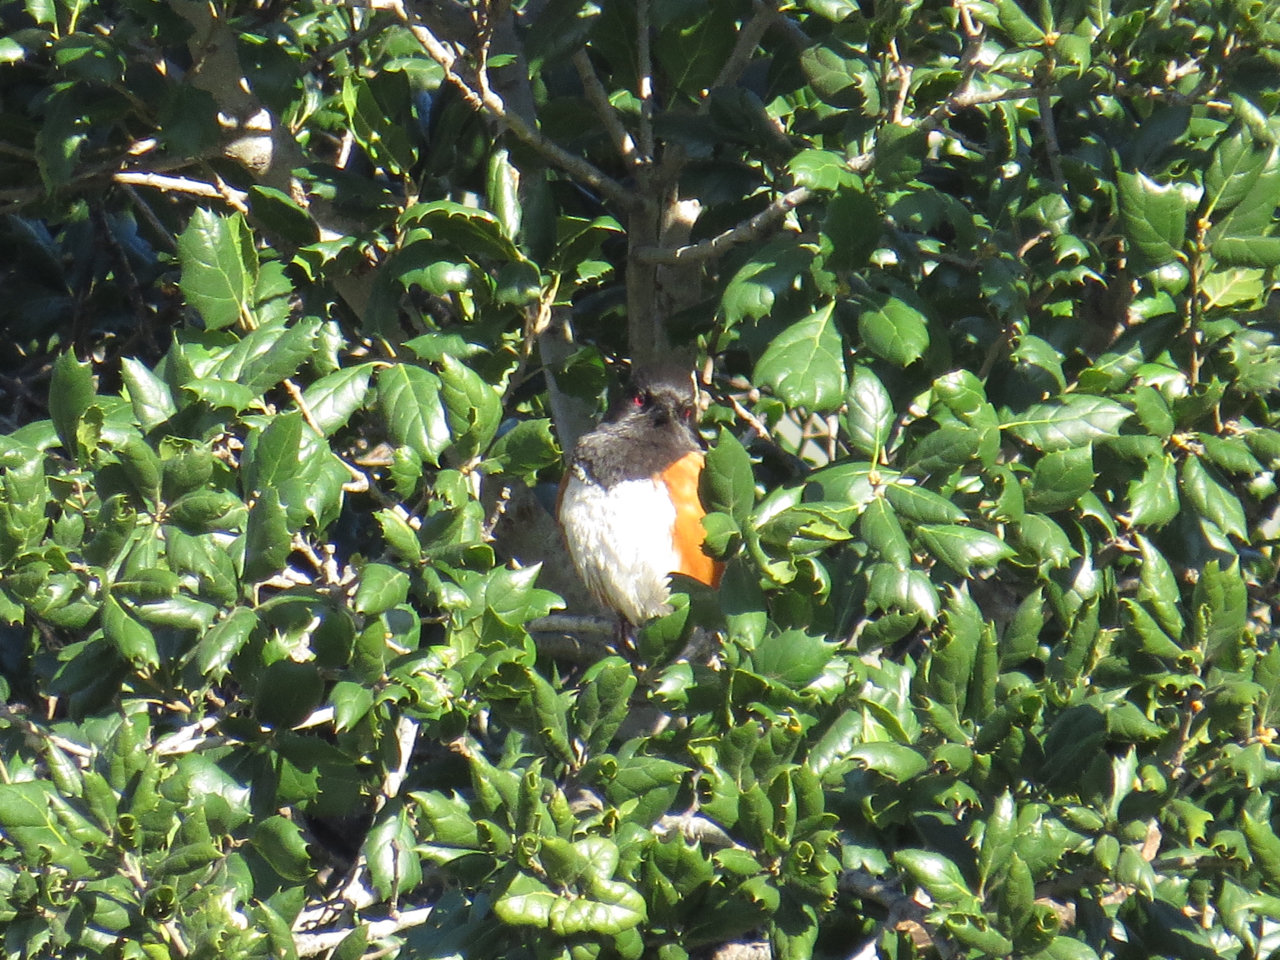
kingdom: Animalia
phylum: Chordata
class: Aves
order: Passeriformes
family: Passerellidae
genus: Pipilo
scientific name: Pipilo maculatus
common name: Spotted towhee
